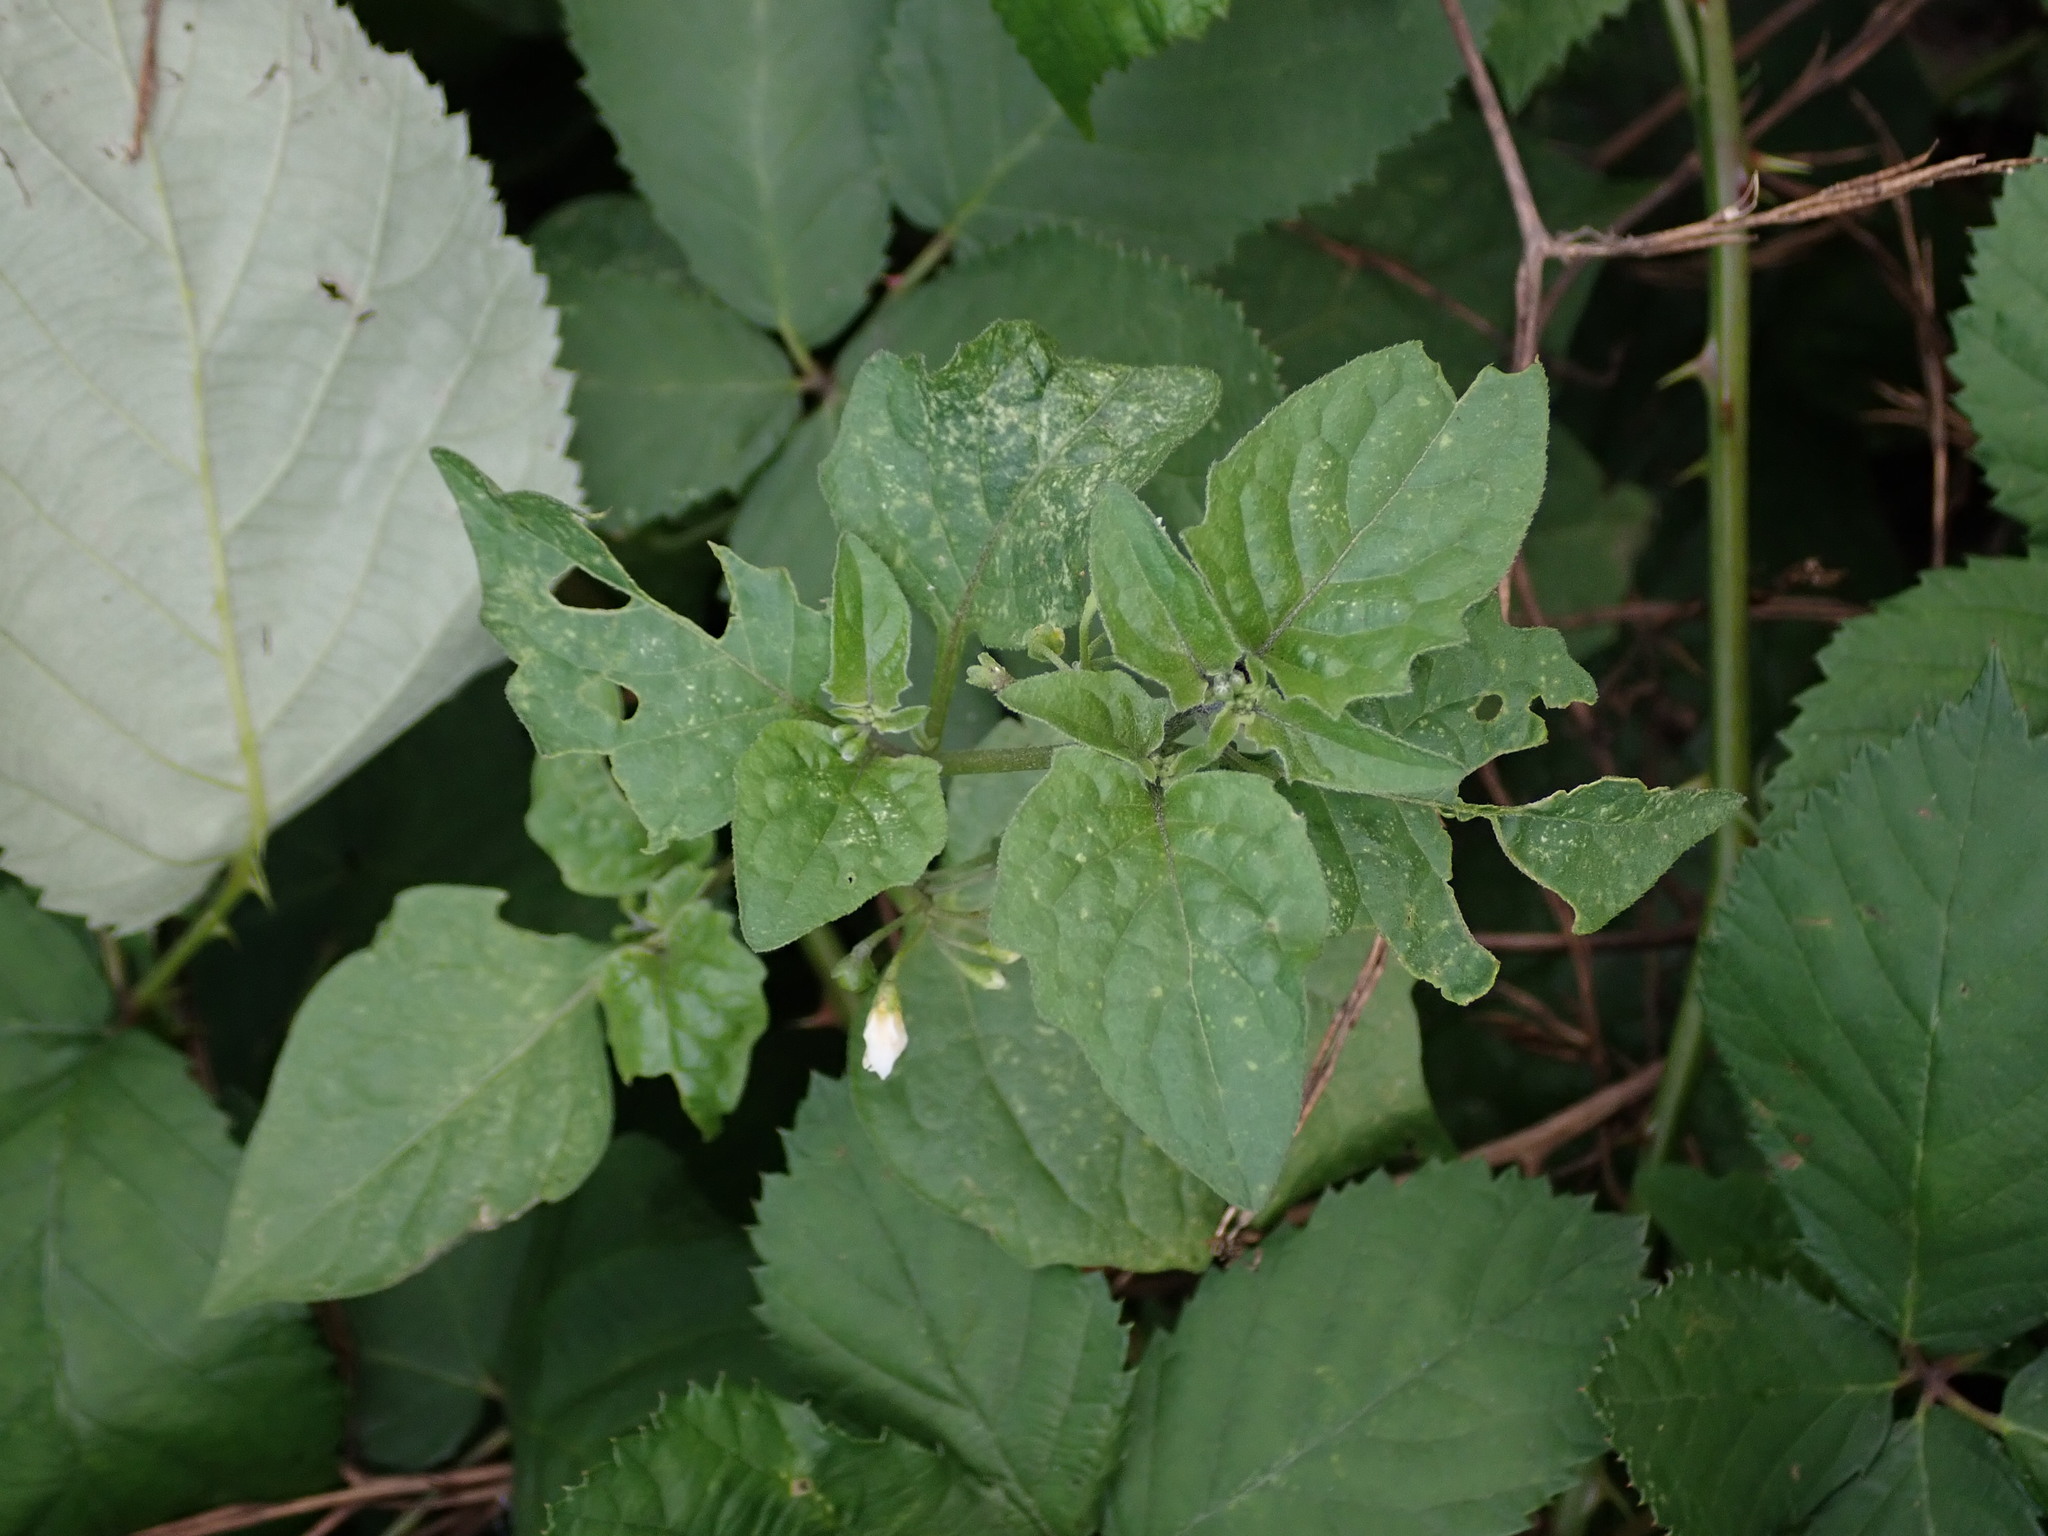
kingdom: Plantae
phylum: Tracheophyta
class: Magnoliopsida
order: Solanales
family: Solanaceae
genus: Solanum
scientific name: Solanum nigrum
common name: Black nightshade
